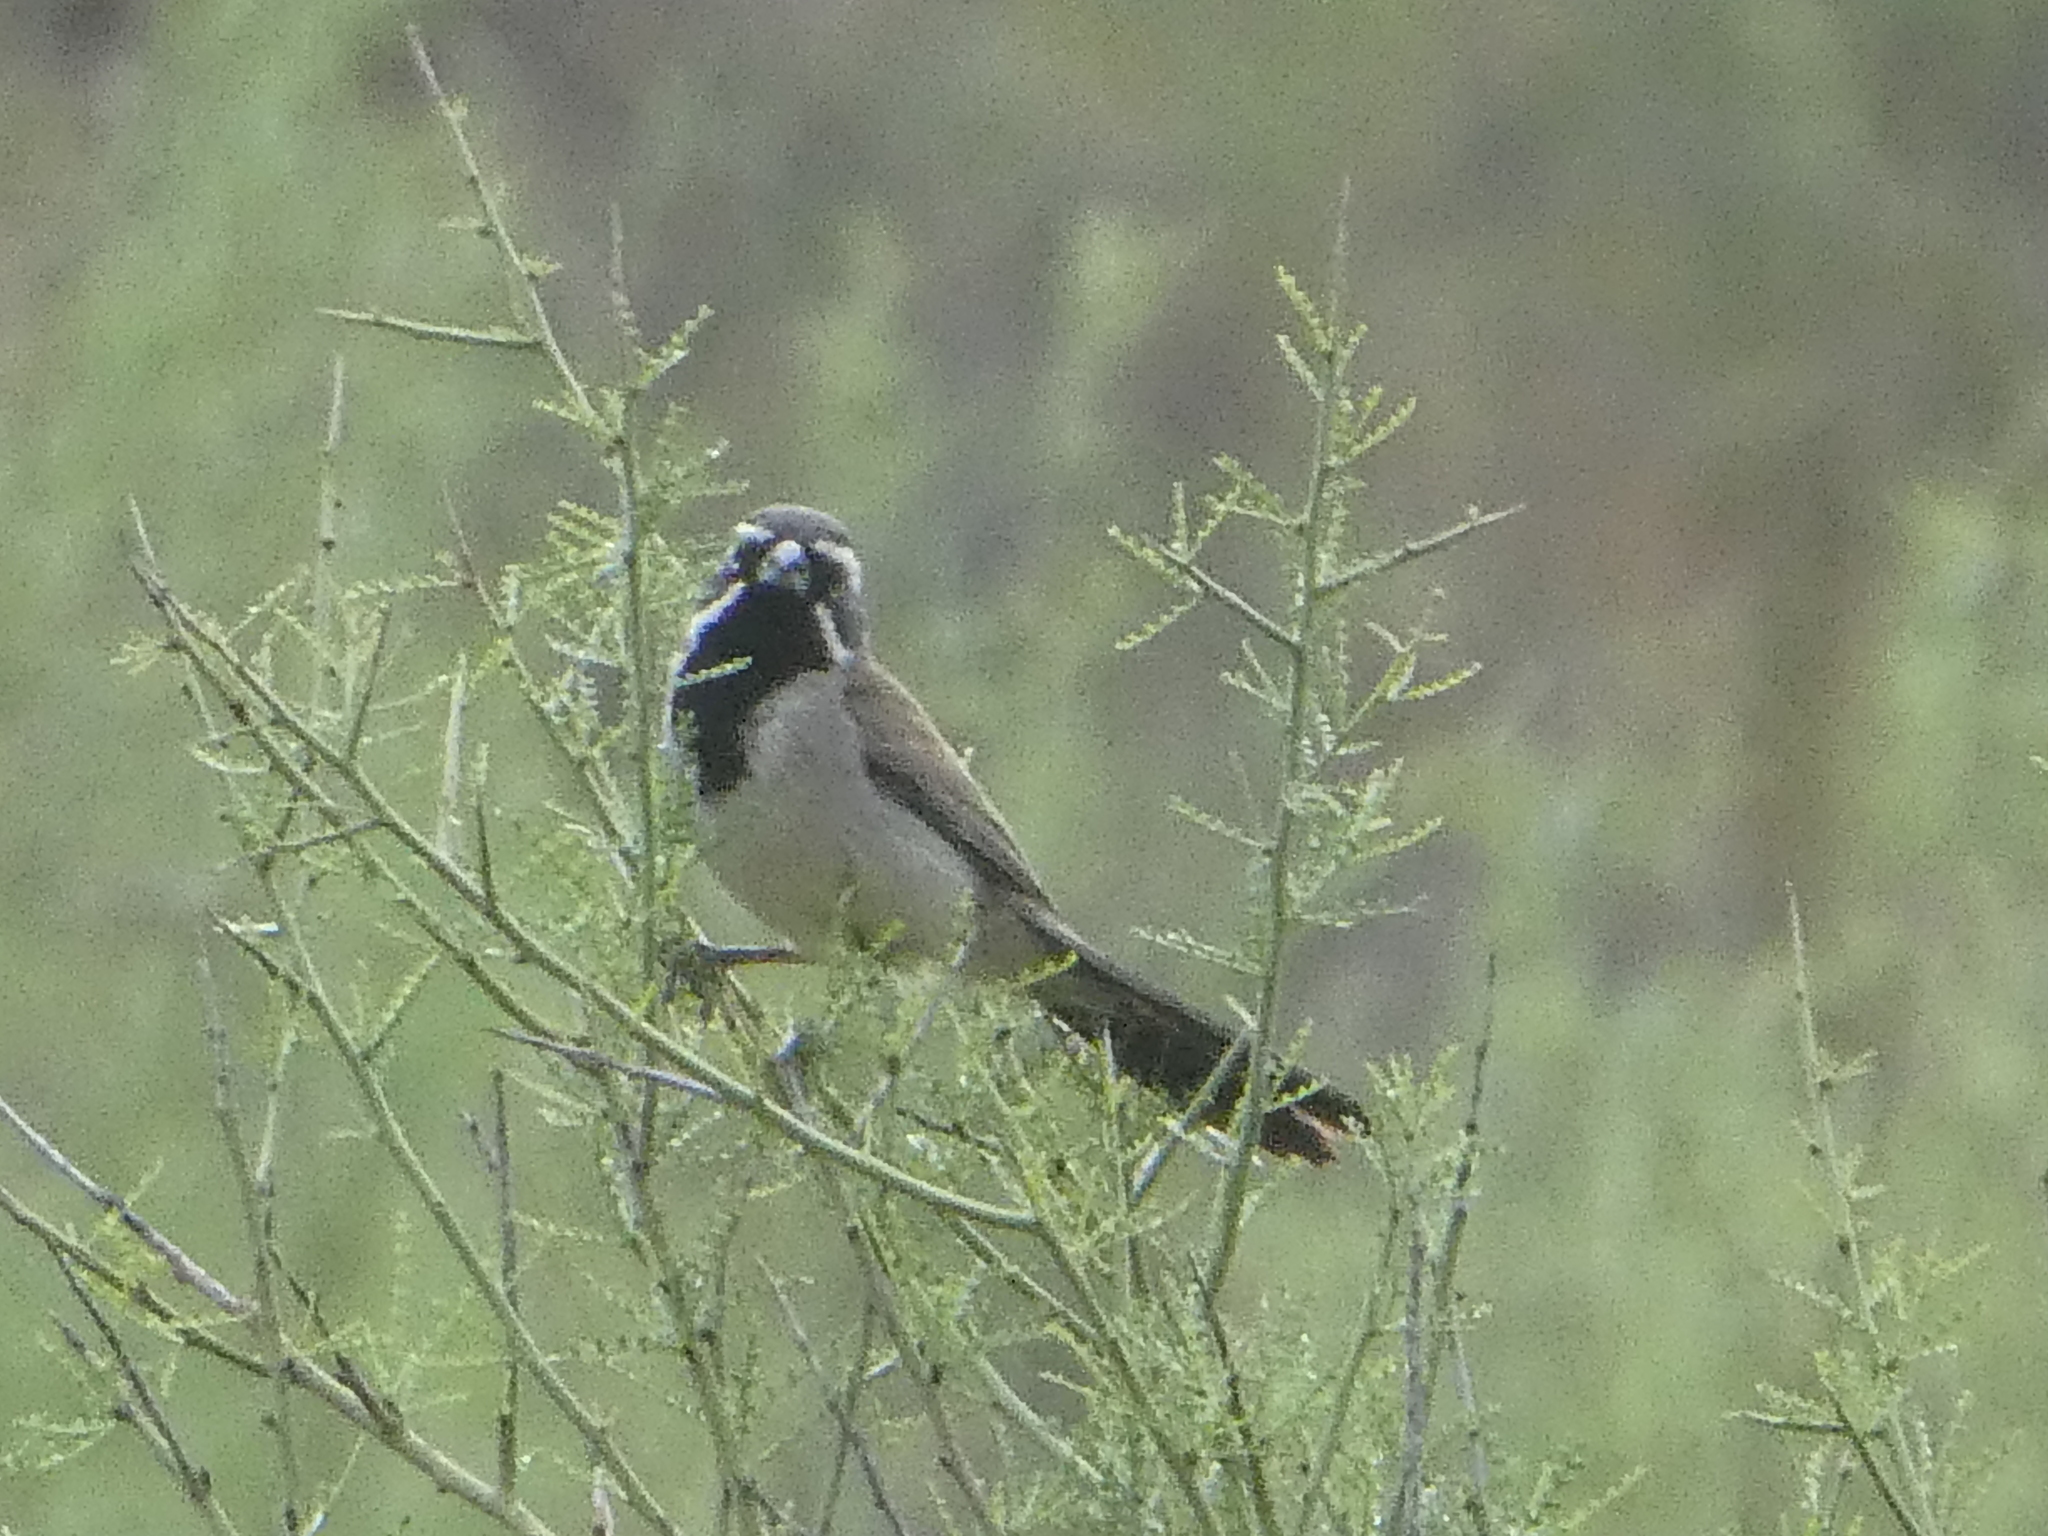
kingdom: Animalia
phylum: Chordata
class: Aves
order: Passeriformes
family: Passerellidae
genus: Amphispiza
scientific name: Amphispiza bilineata
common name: Black-throated sparrow
